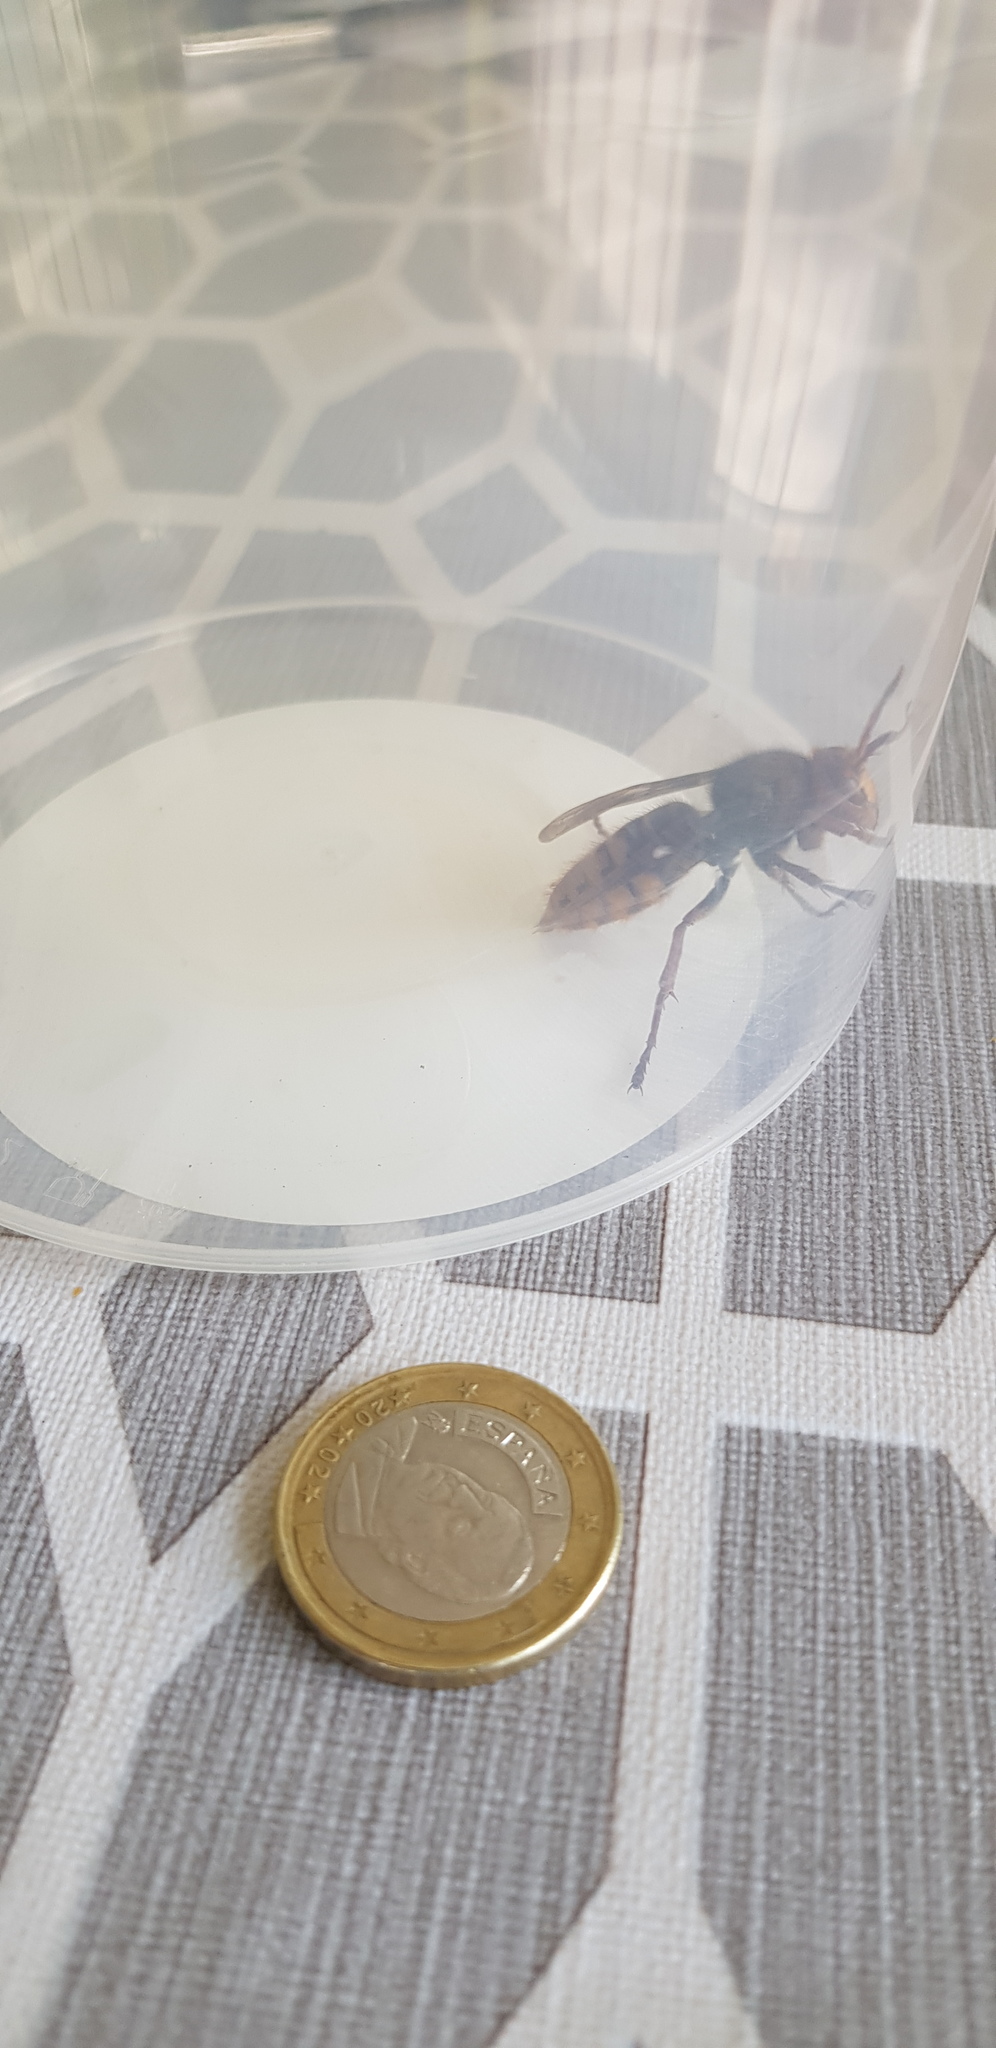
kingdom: Animalia
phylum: Arthropoda
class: Insecta
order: Hymenoptera
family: Vespidae
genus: Vespa
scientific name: Vespa crabro
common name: Hornet
